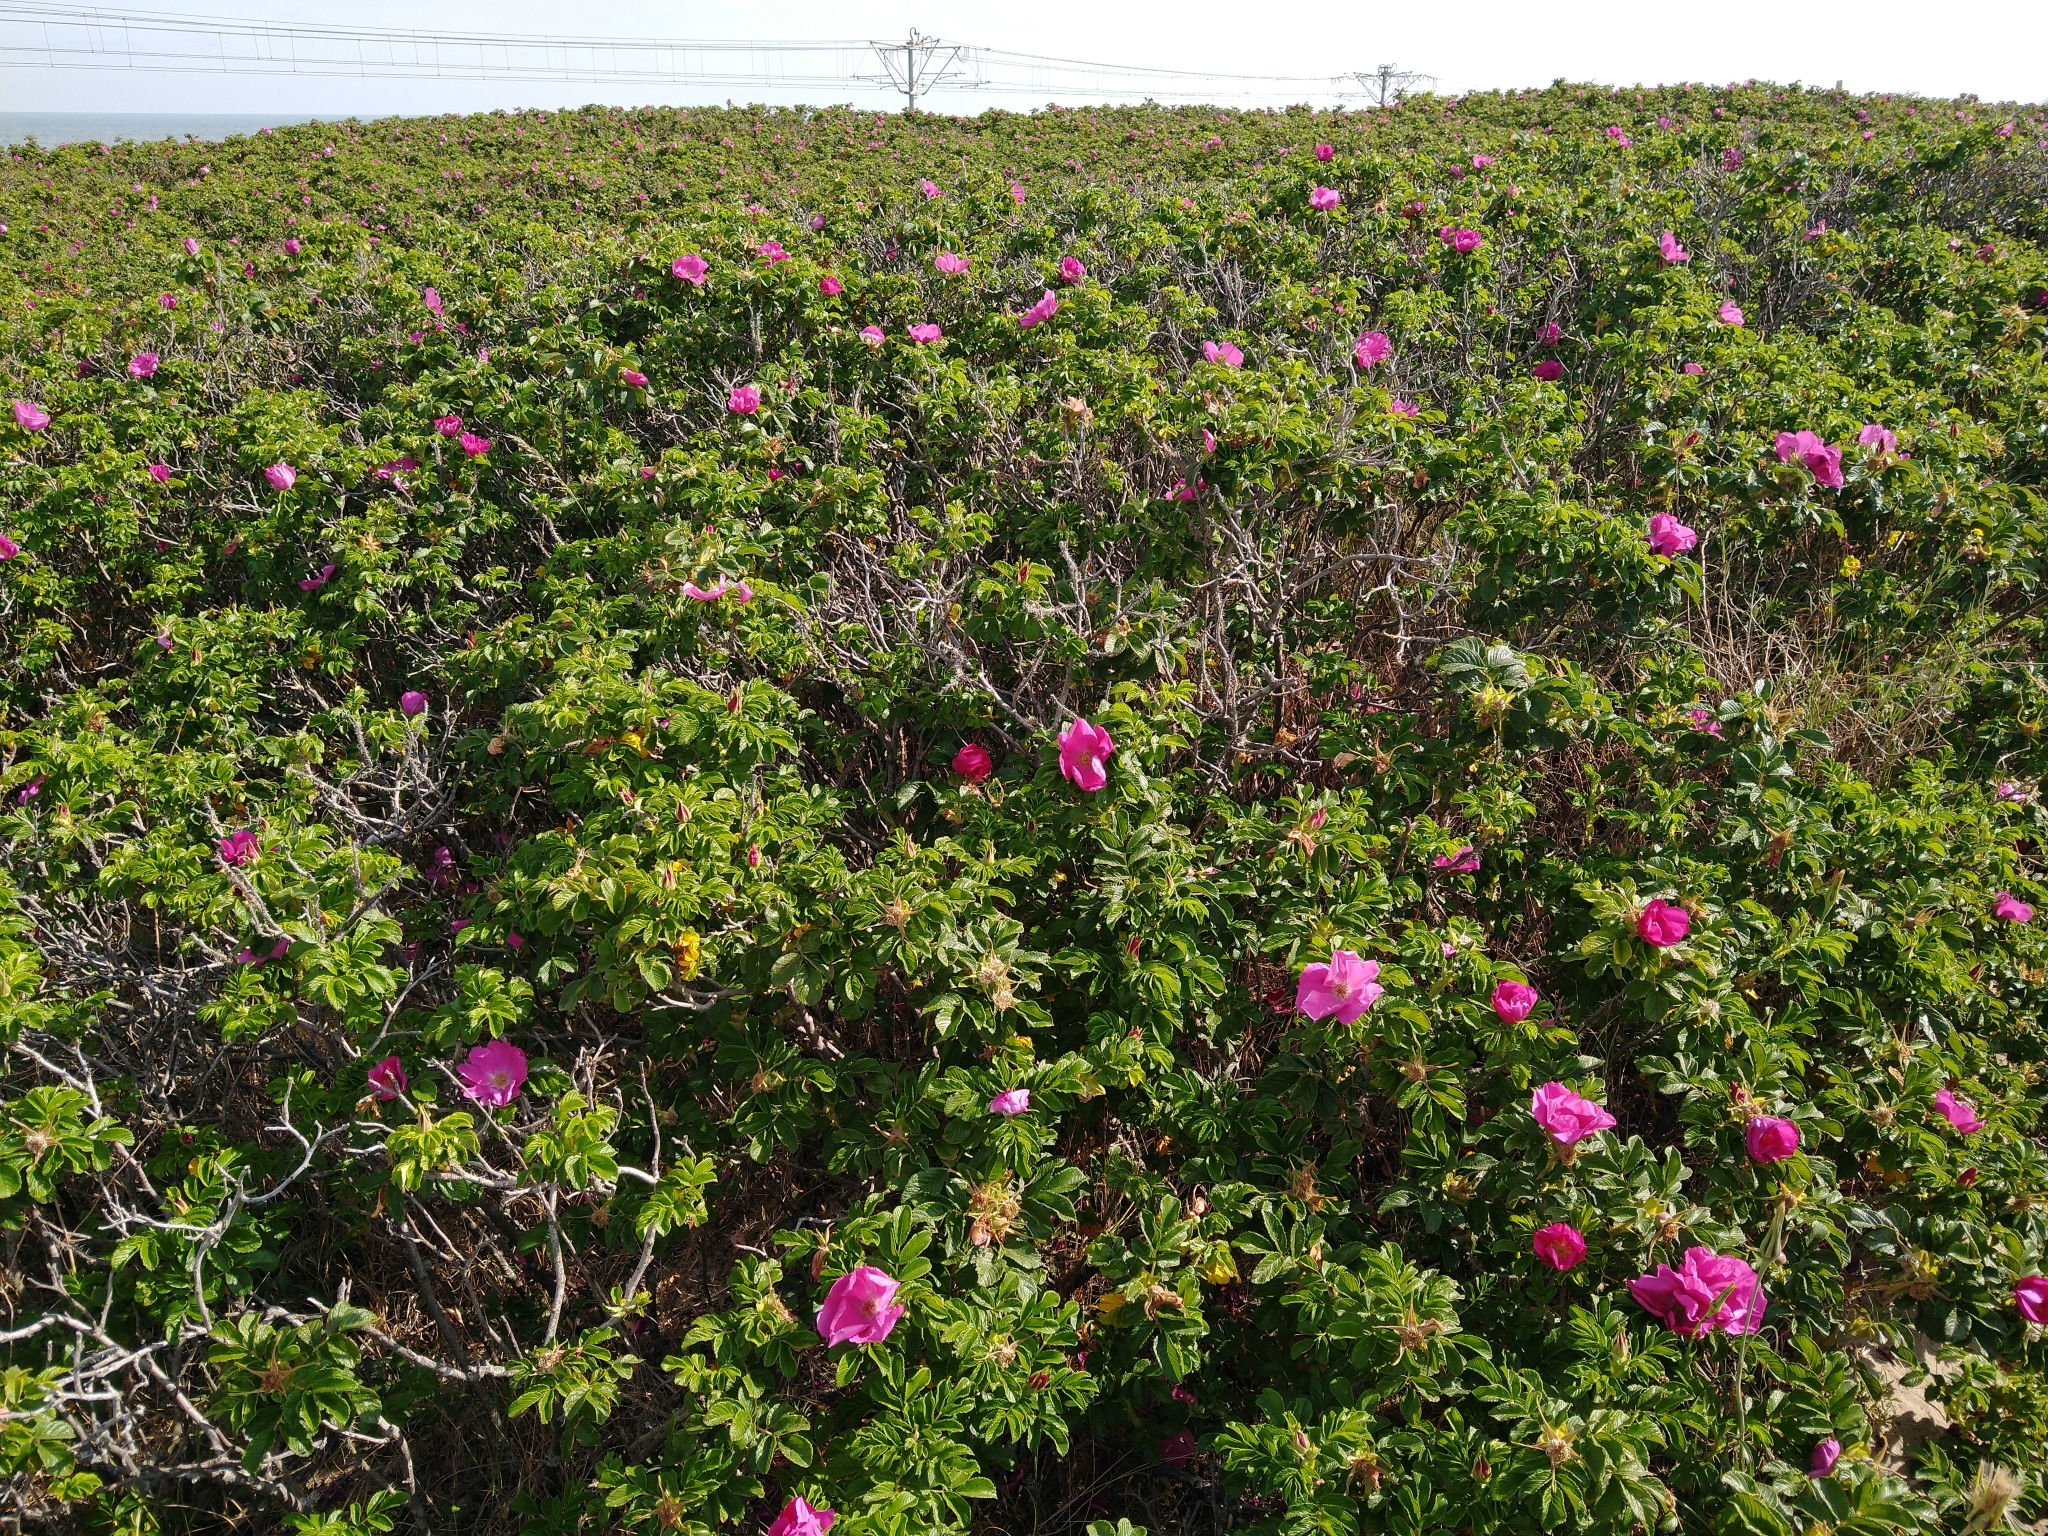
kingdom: Plantae
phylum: Tracheophyta
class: Magnoliopsida
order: Rosales
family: Rosaceae
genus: Rosa
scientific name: Rosa rugosa
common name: Japanese rose
